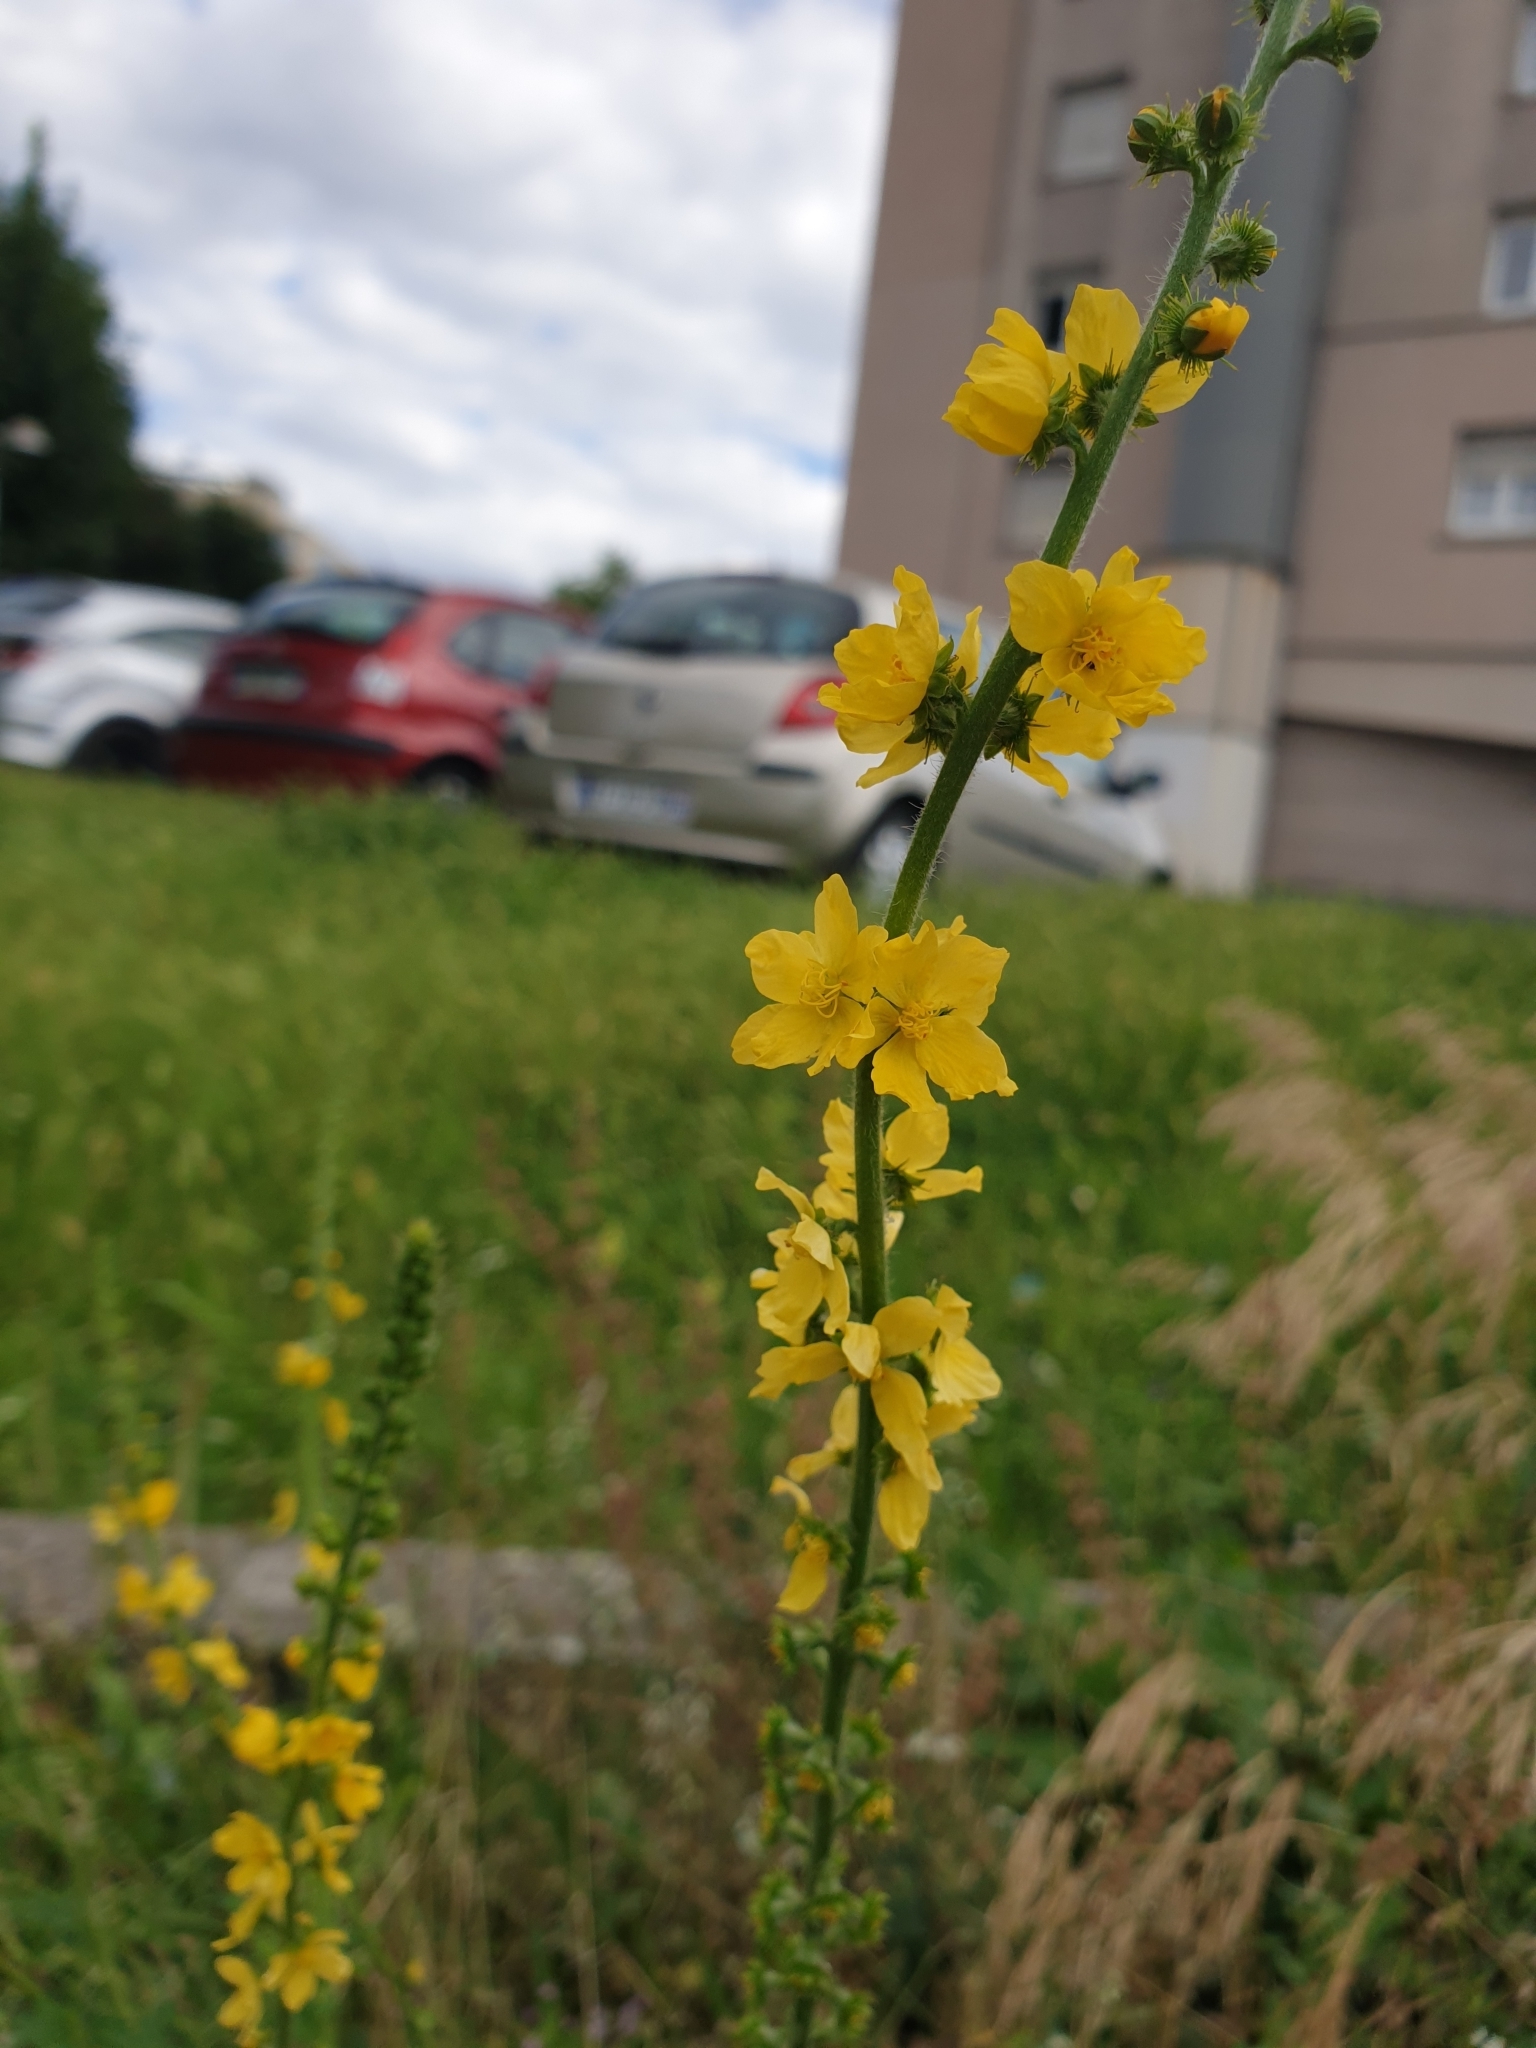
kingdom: Plantae
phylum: Tracheophyta
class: Magnoliopsida
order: Rosales
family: Rosaceae
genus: Agrimonia
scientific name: Agrimonia eupatoria
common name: Agrimony
